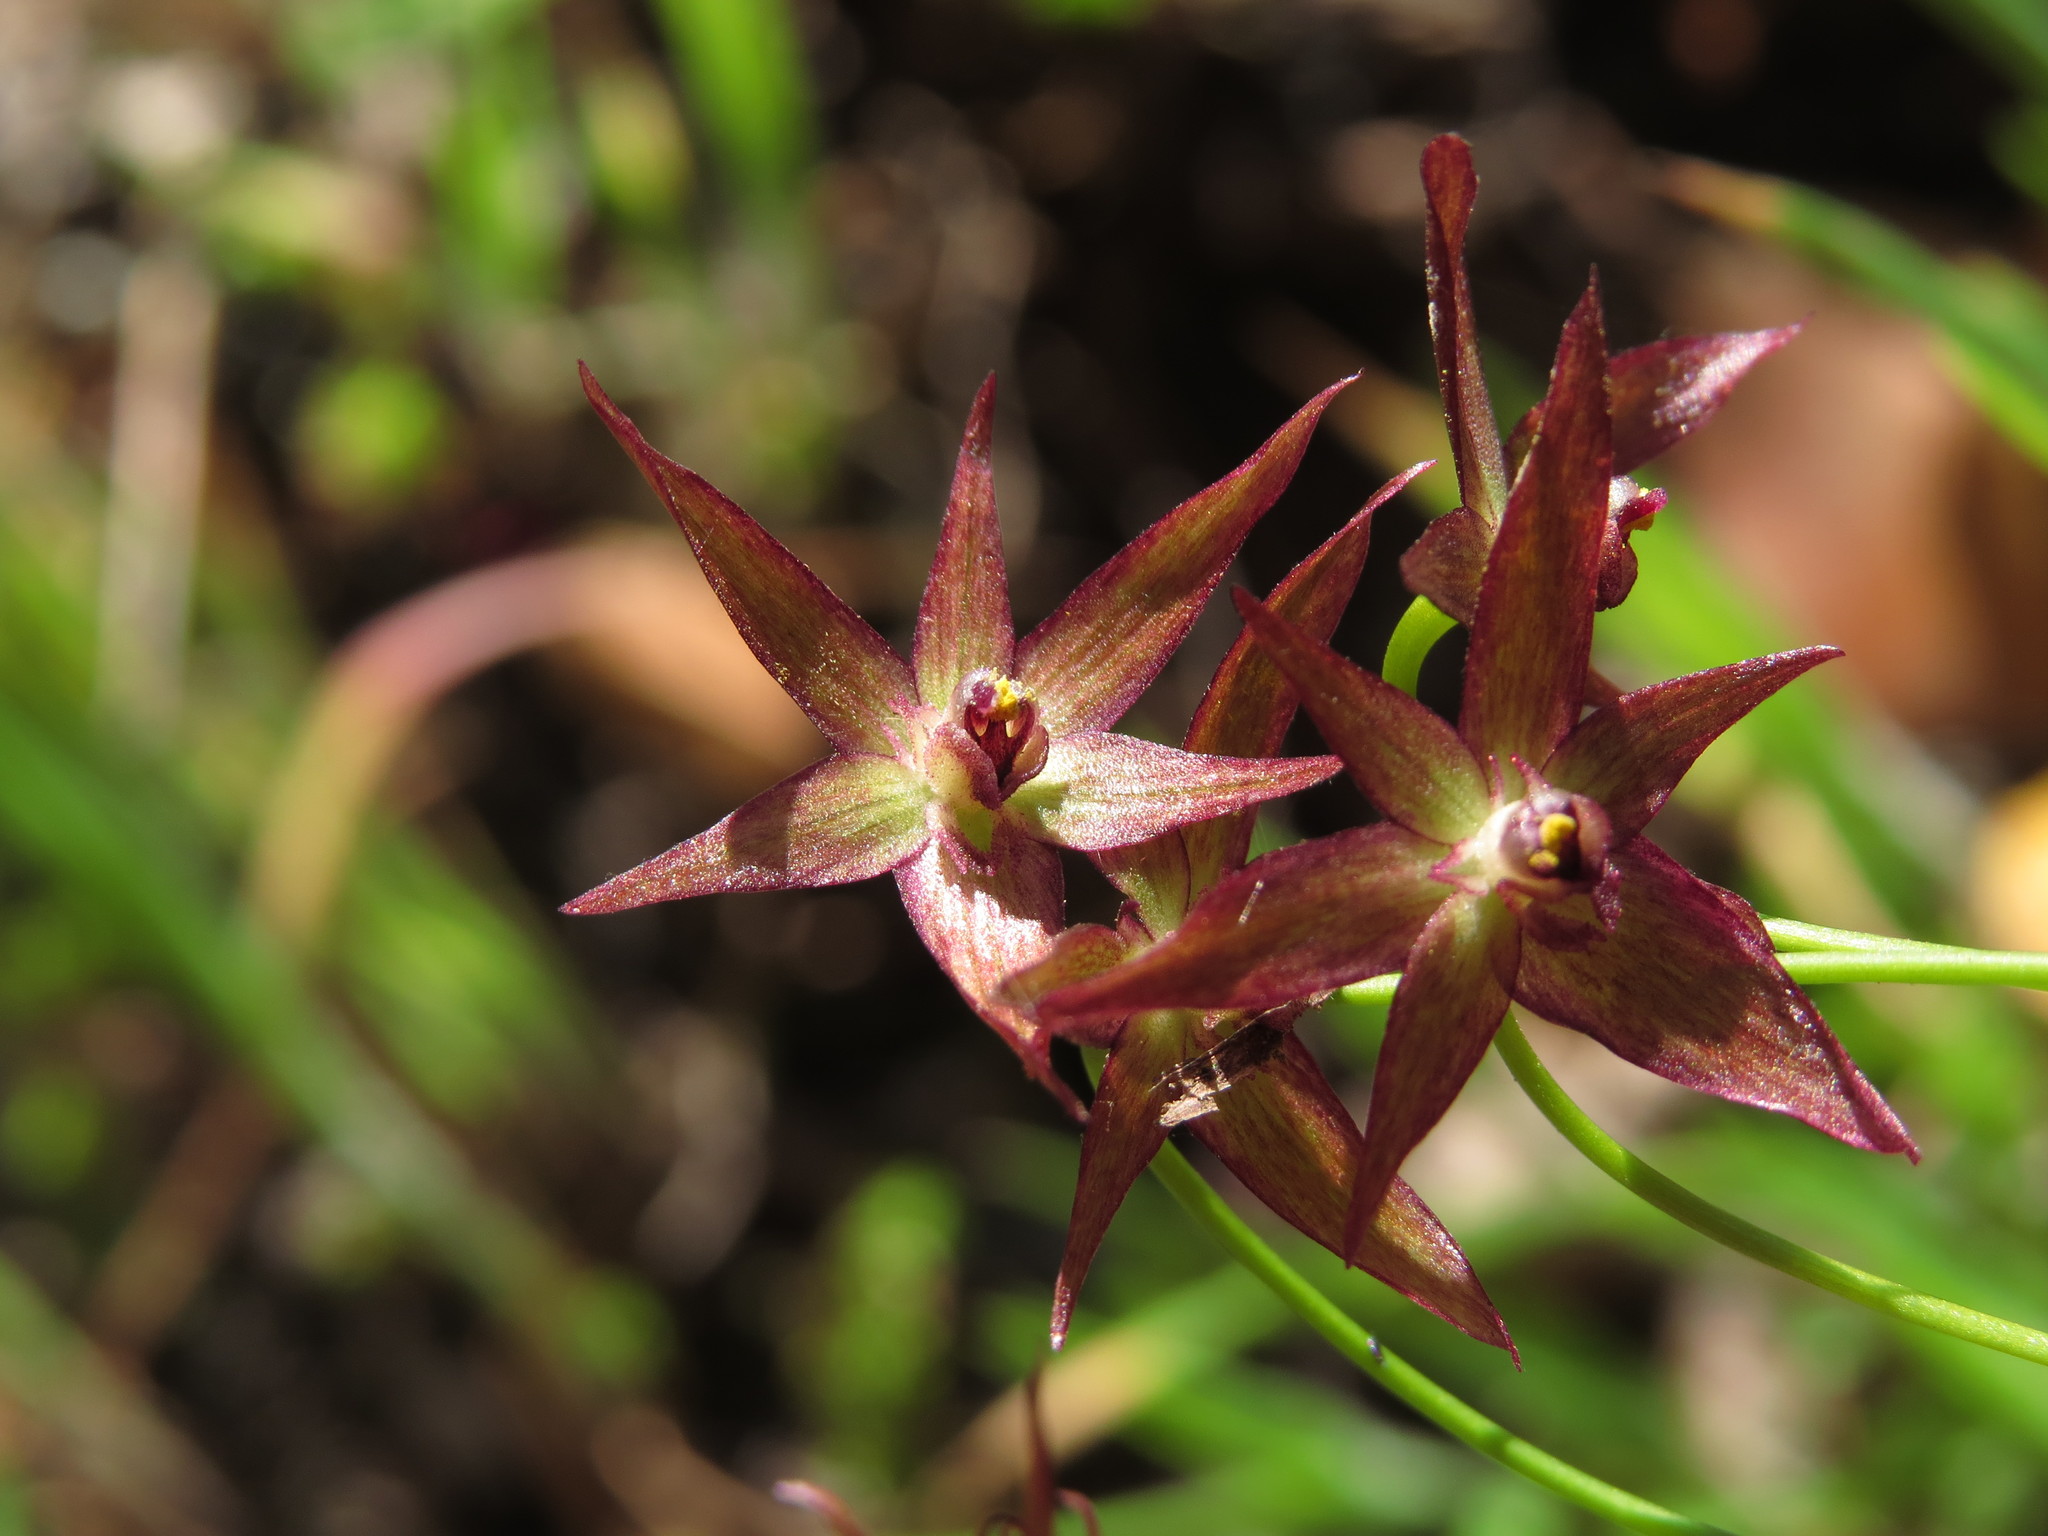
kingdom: Plantae
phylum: Tracheophyta
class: Liliopsida
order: Asparagales
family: Amaryllidaceae
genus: Gilliesia
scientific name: Gilliesia isopetala
